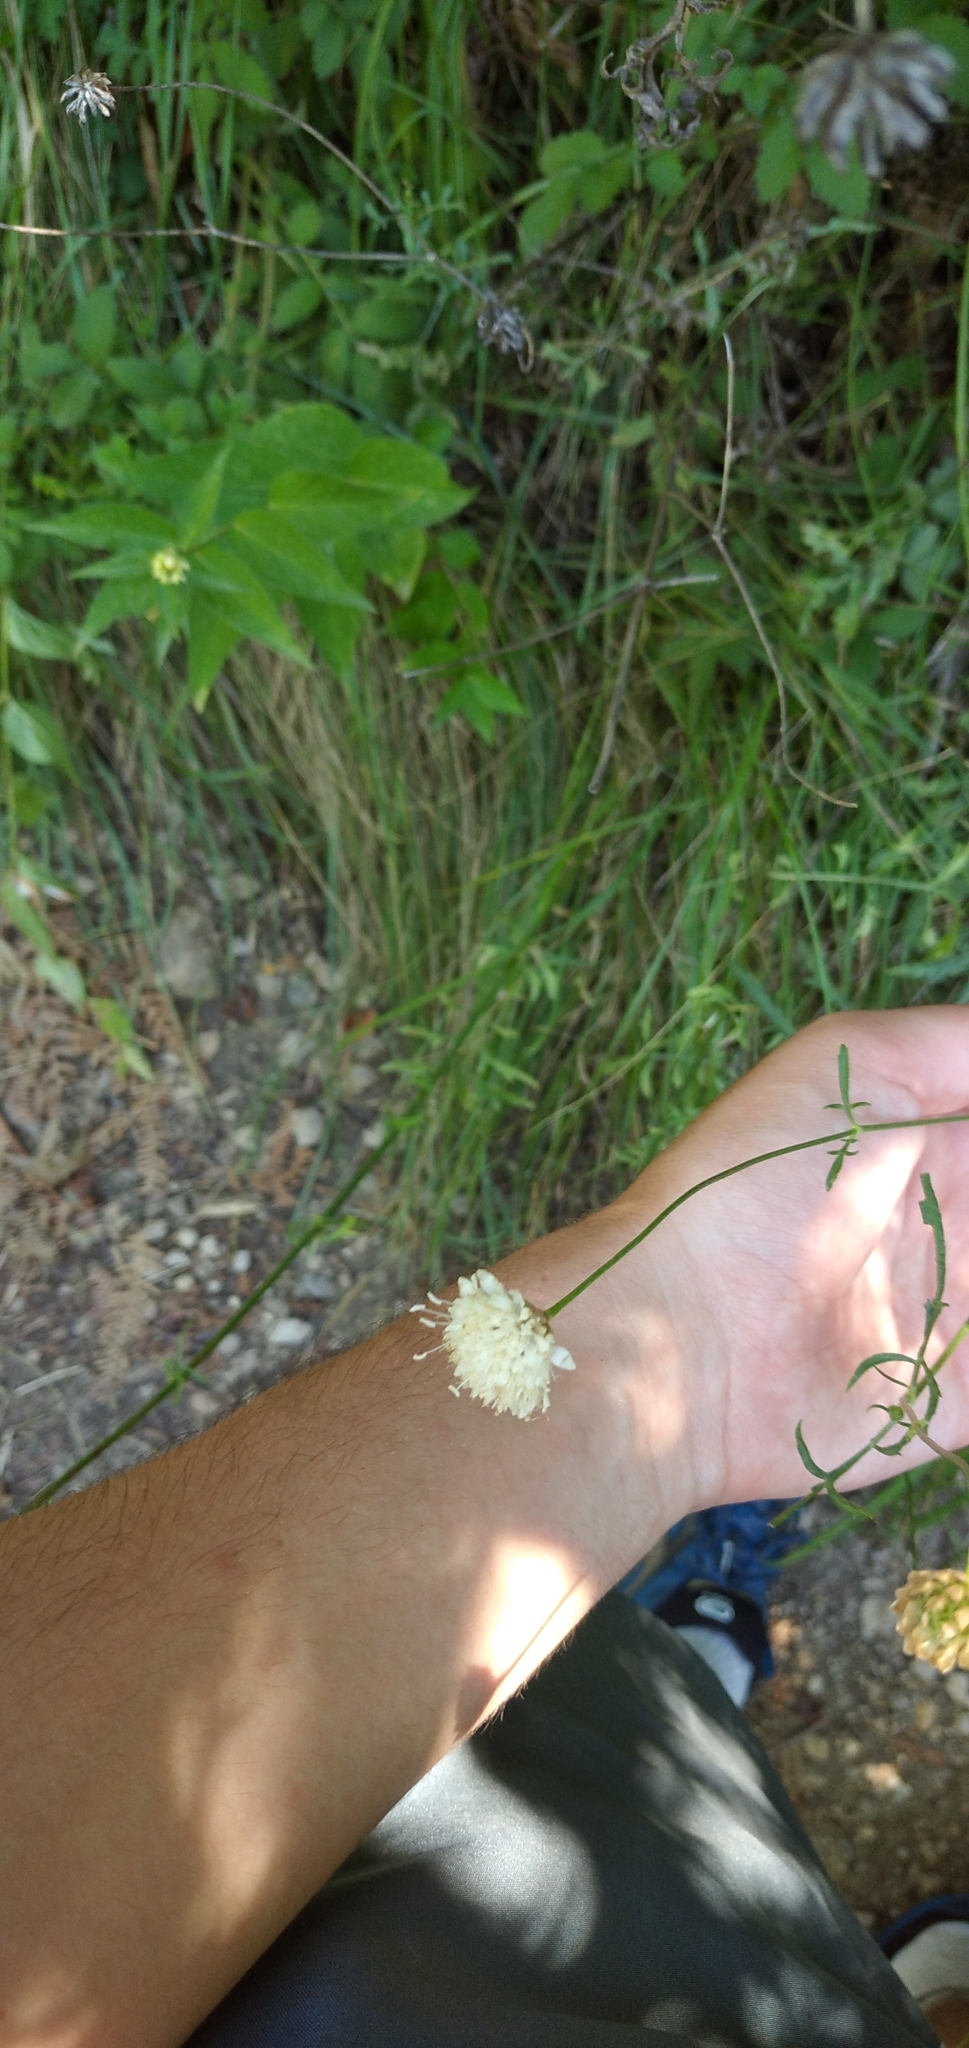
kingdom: Plantae
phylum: Tracheophyta
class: Magnoliopsida
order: Dipsacales
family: Caprifoliaceae
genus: Cephalaria
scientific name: Cephalaria leucantha
